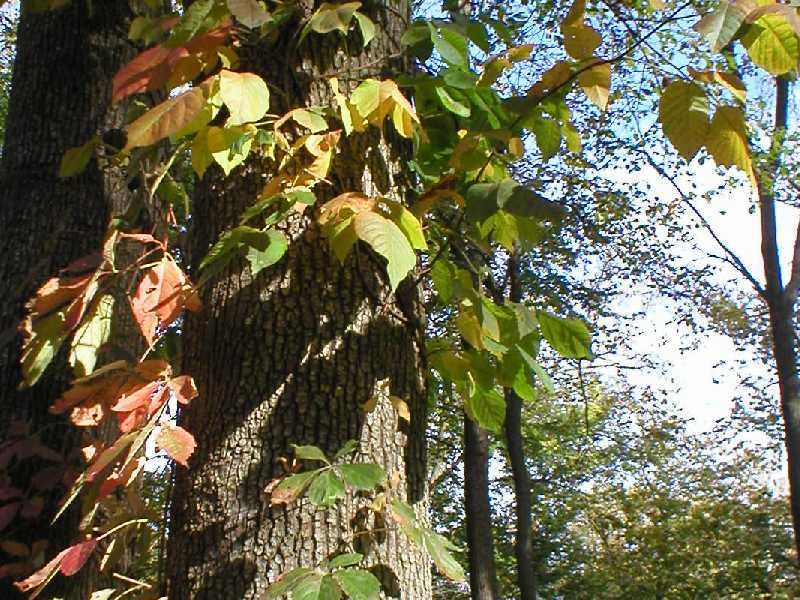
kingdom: Plantae
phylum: Tracheophyta
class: Magnoliopsida
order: Vitales
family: Vitaceae
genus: Parthenocissus
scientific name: Parthenocissus quinquefolia
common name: Virginia-creeper
